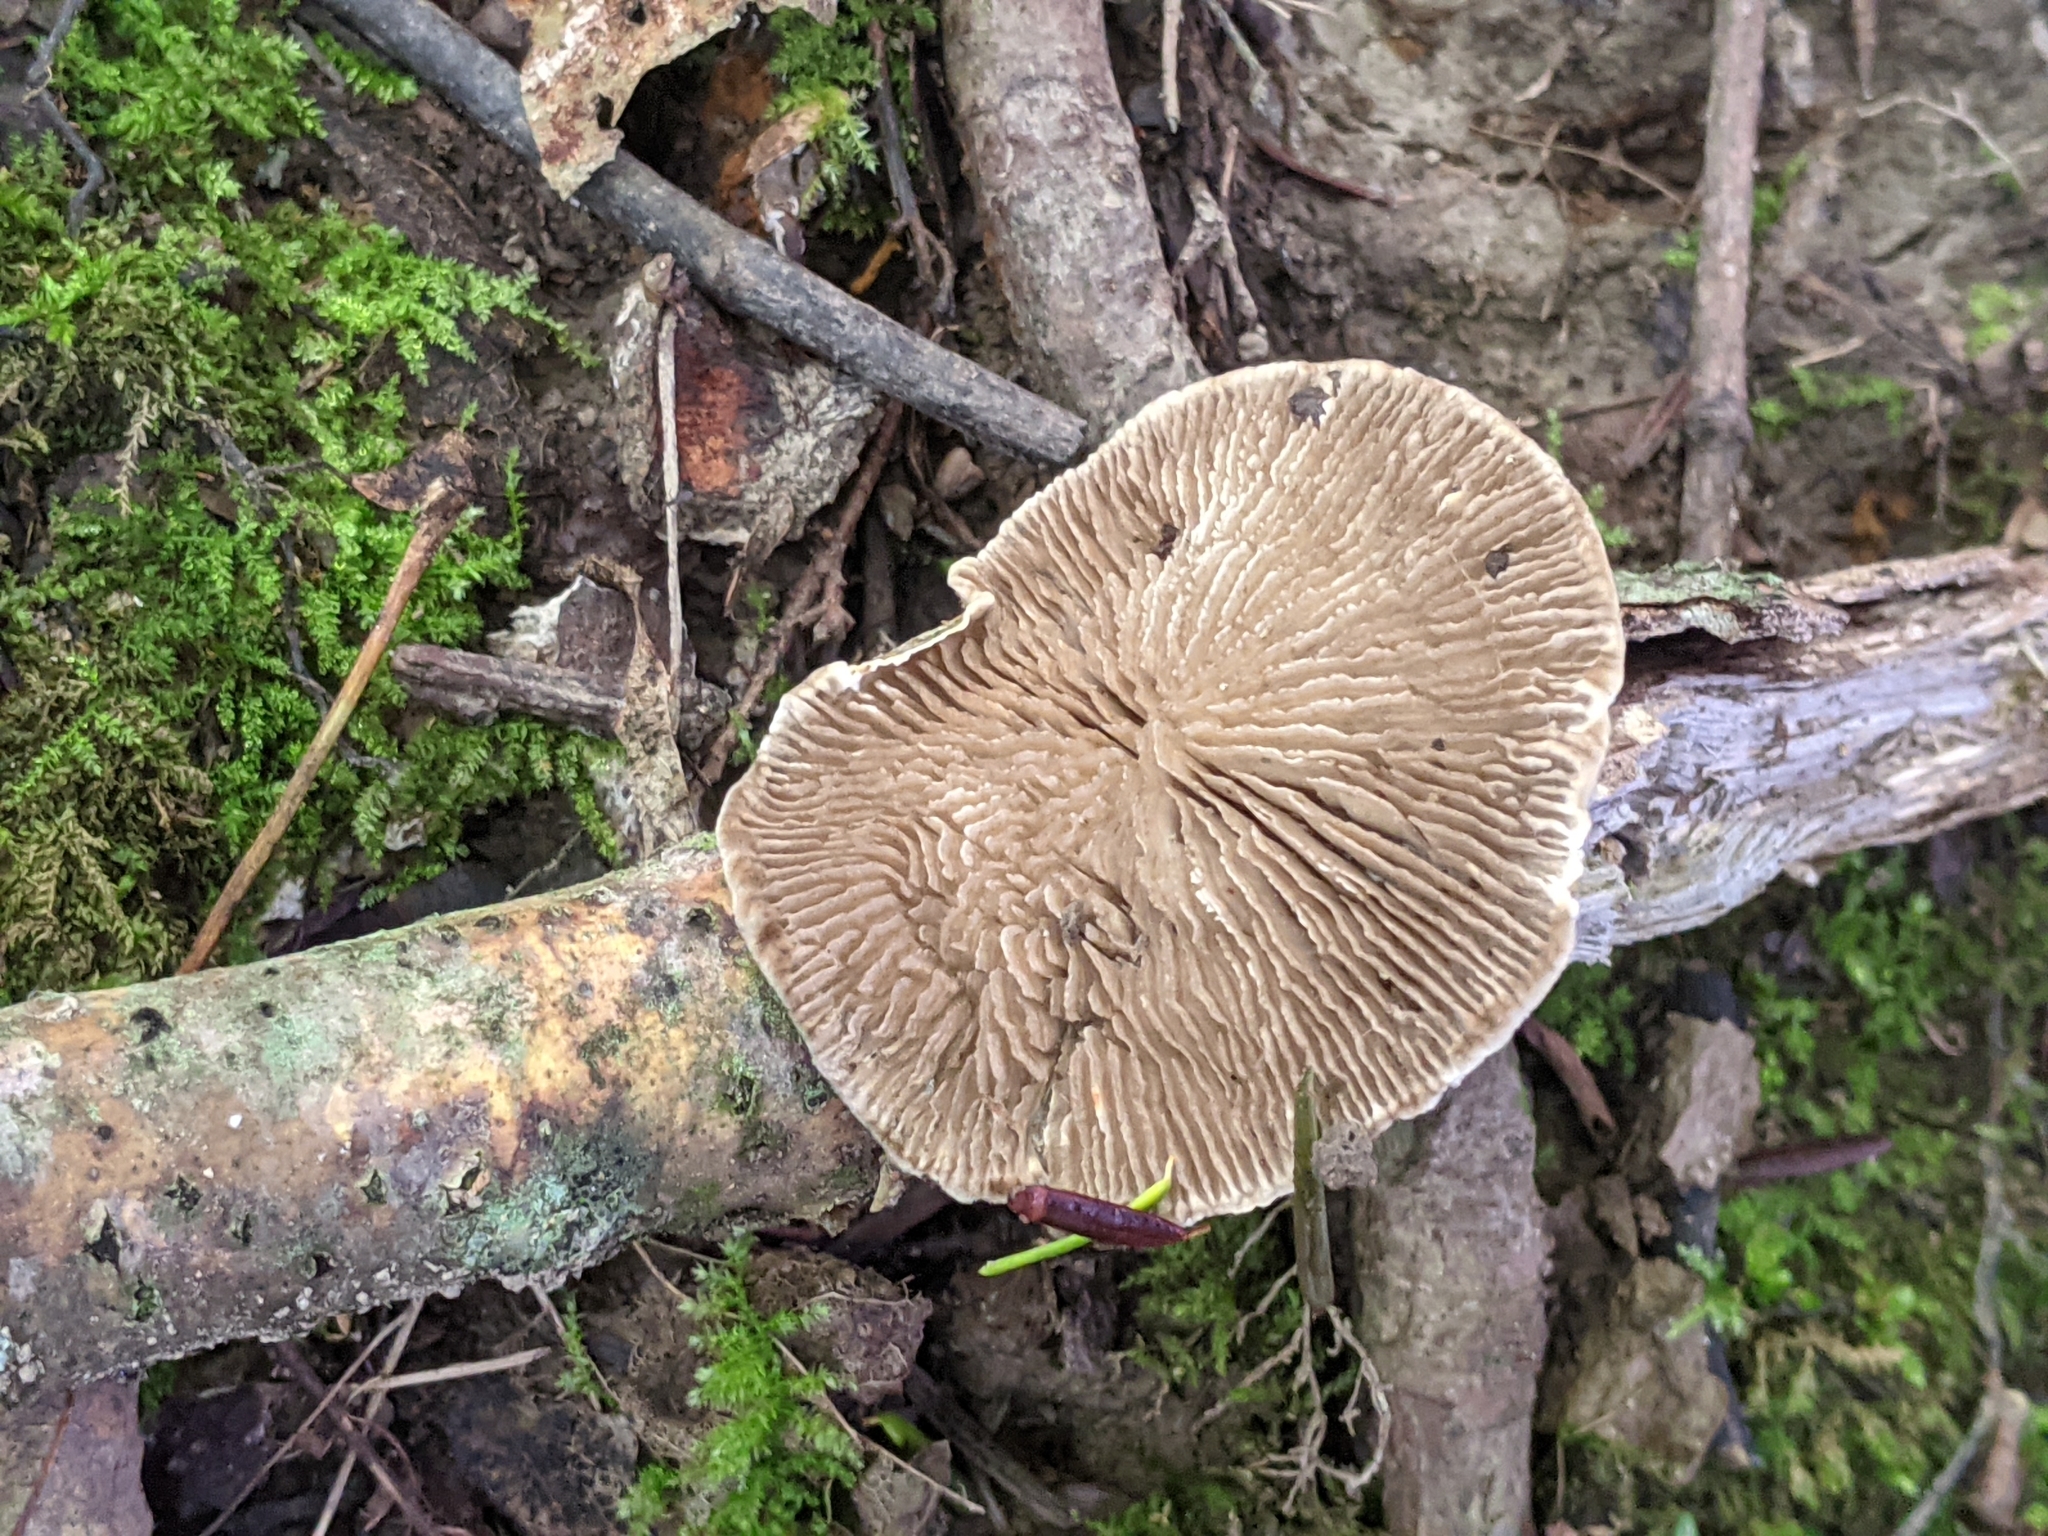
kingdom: Fungi
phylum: Basidiomycota
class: Agaricomycetes
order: Polyporales
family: Polyporaceae
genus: Lenzites
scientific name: Lenzites betulinus
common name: Birch mazegill
